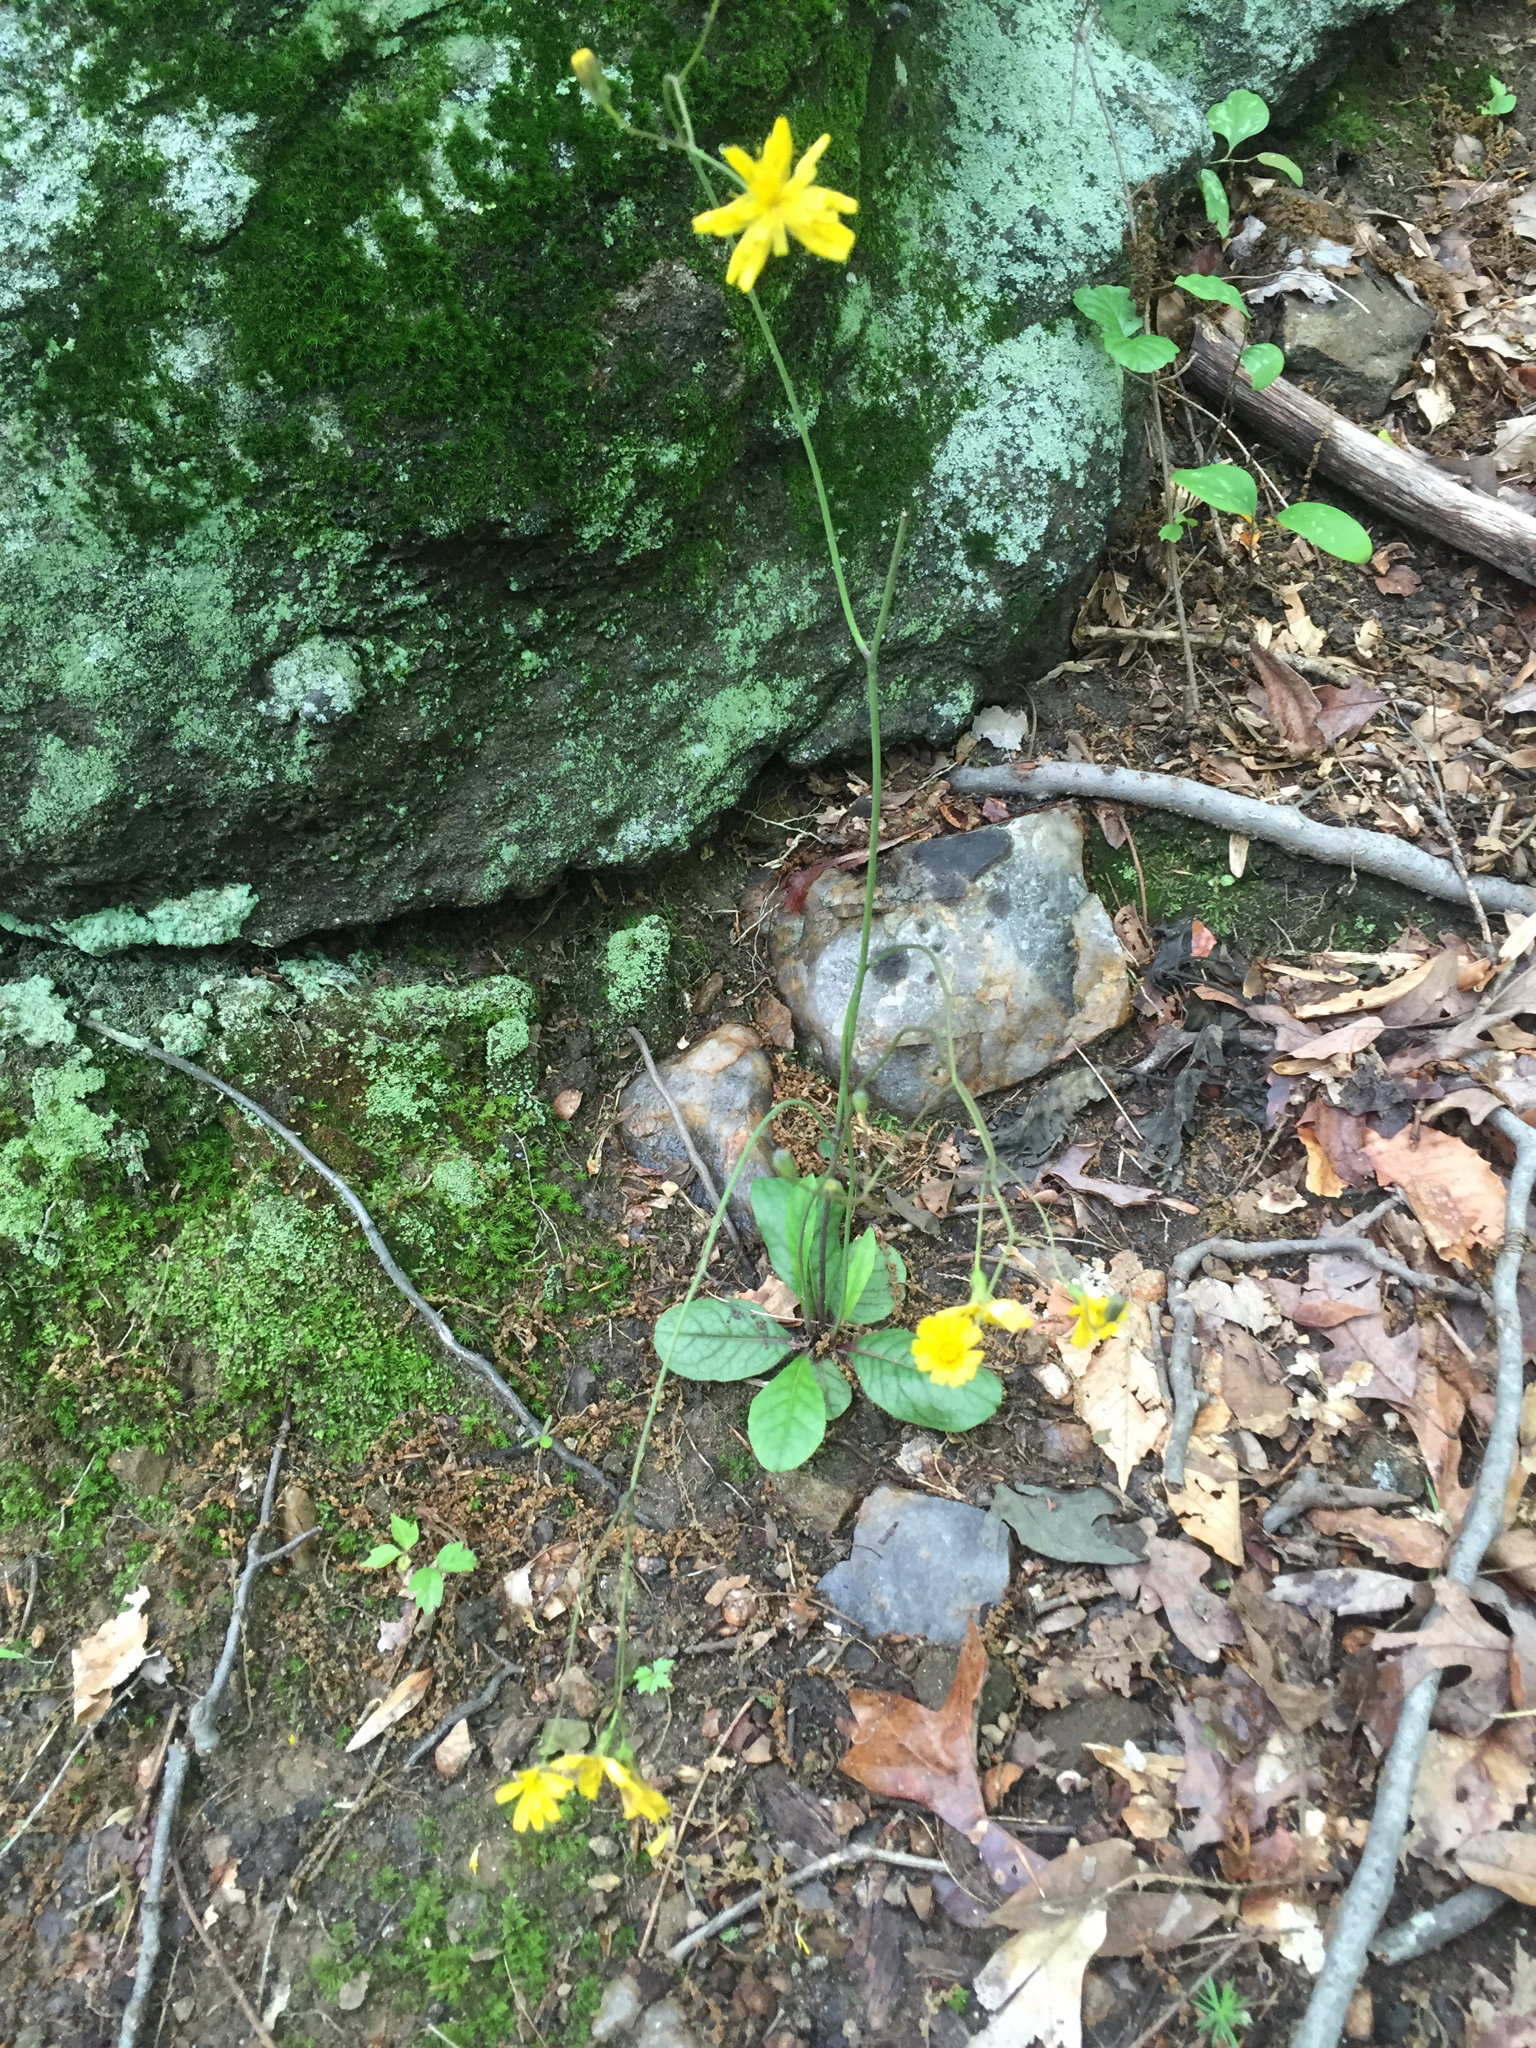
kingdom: Plantae
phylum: Tracheophyta
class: Magnoliopsida
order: Asterales
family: Asteraceae
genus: Hieracium
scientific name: Hieracium venosum
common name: Rattlesnake hawkweed
